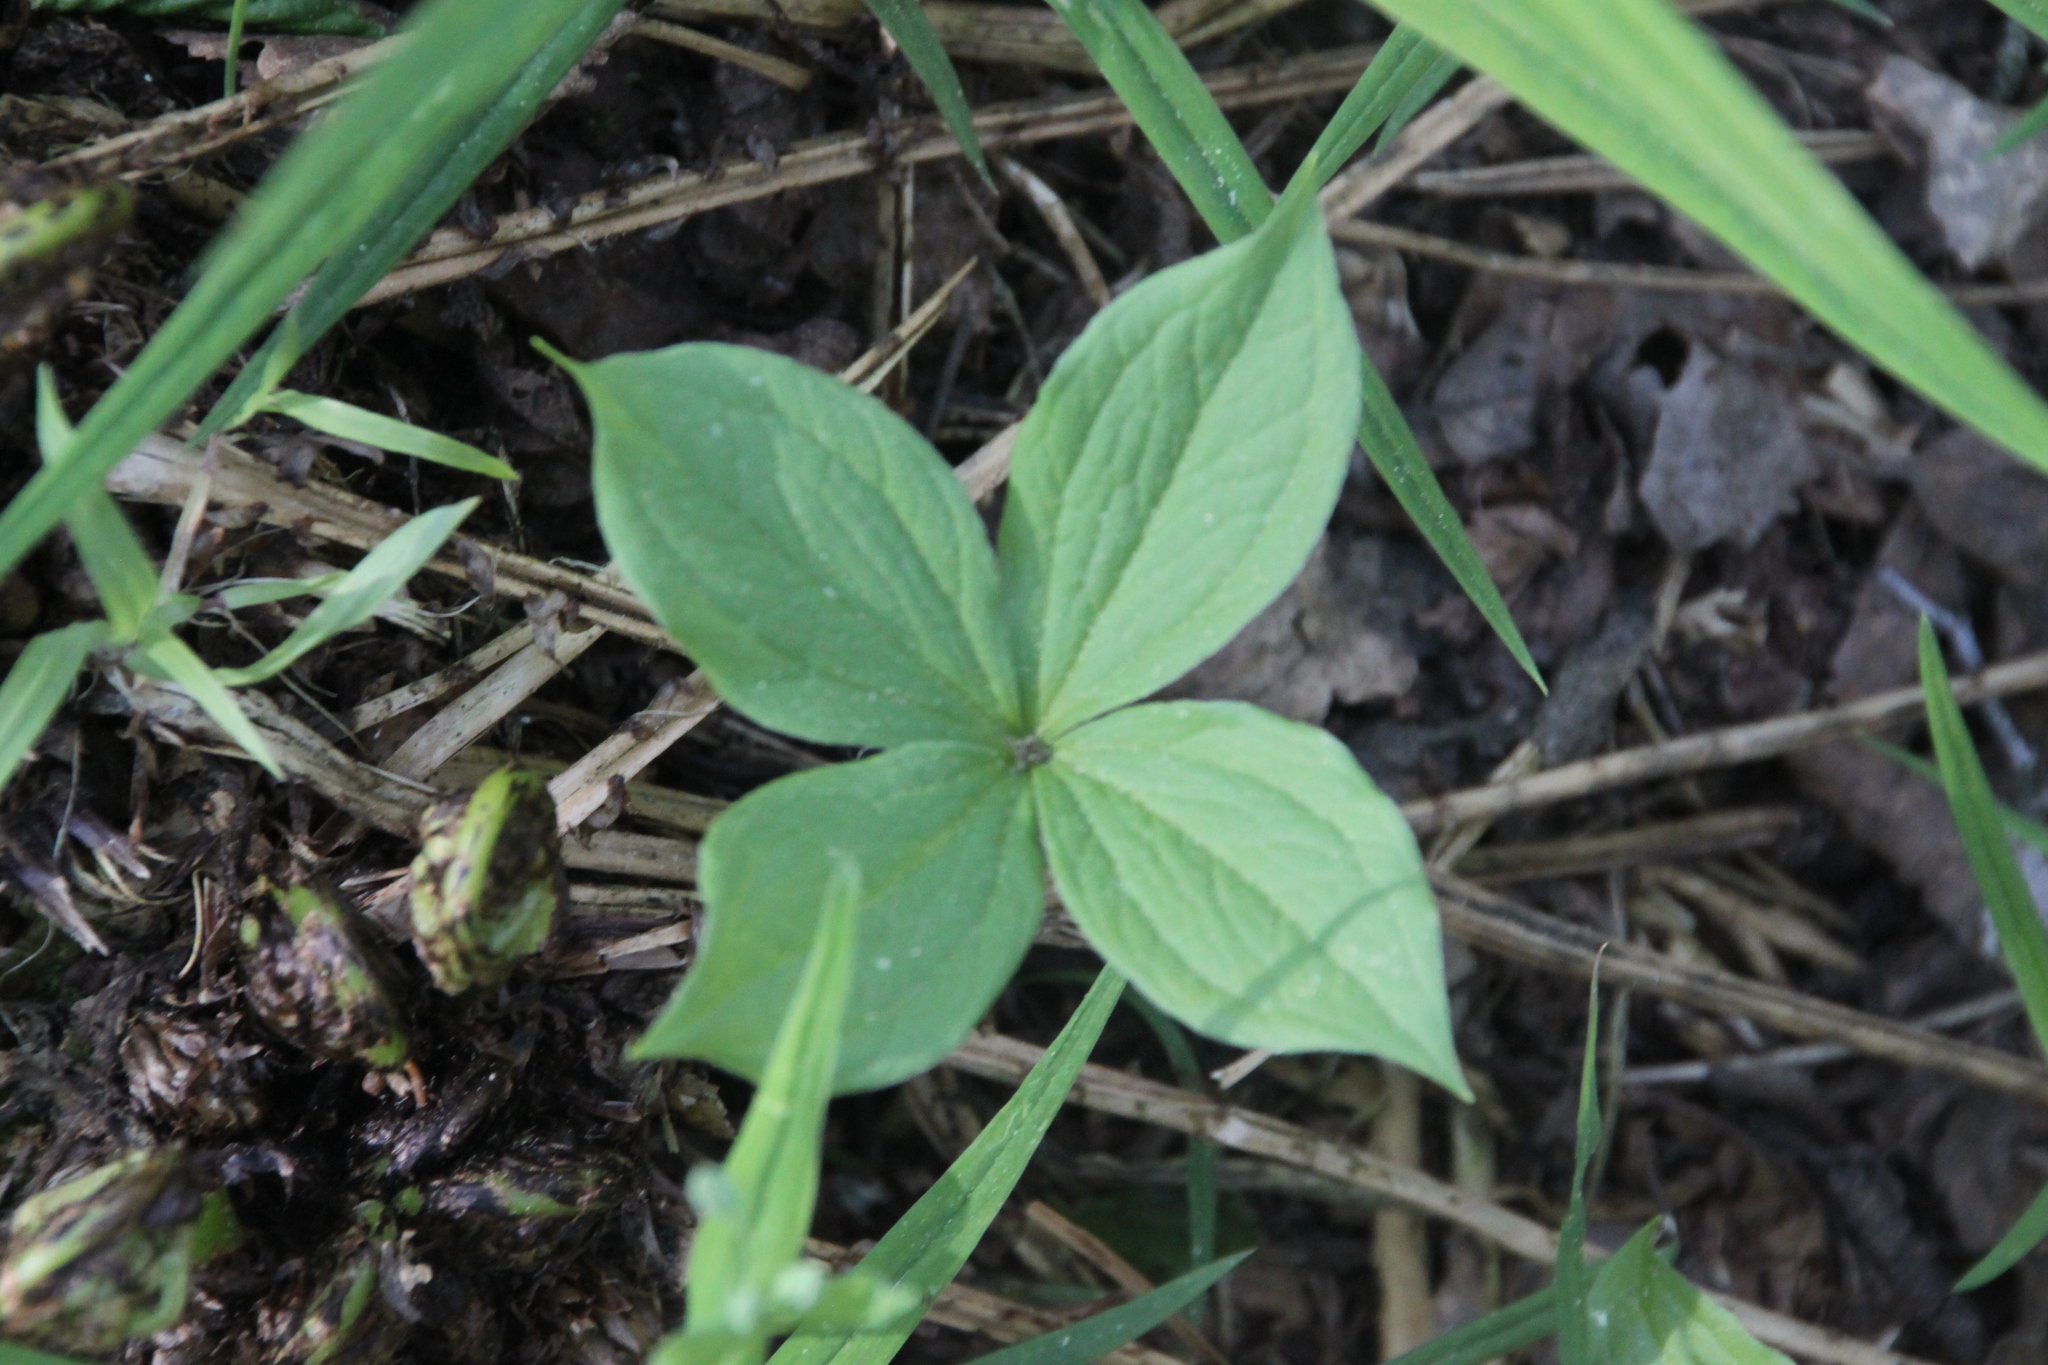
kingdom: Plantae
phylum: Tracheophyta
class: Liliopsida
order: Liliales
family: Melanthiaceae
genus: Paris
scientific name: Paris quadrifolia
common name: Herb-paris
